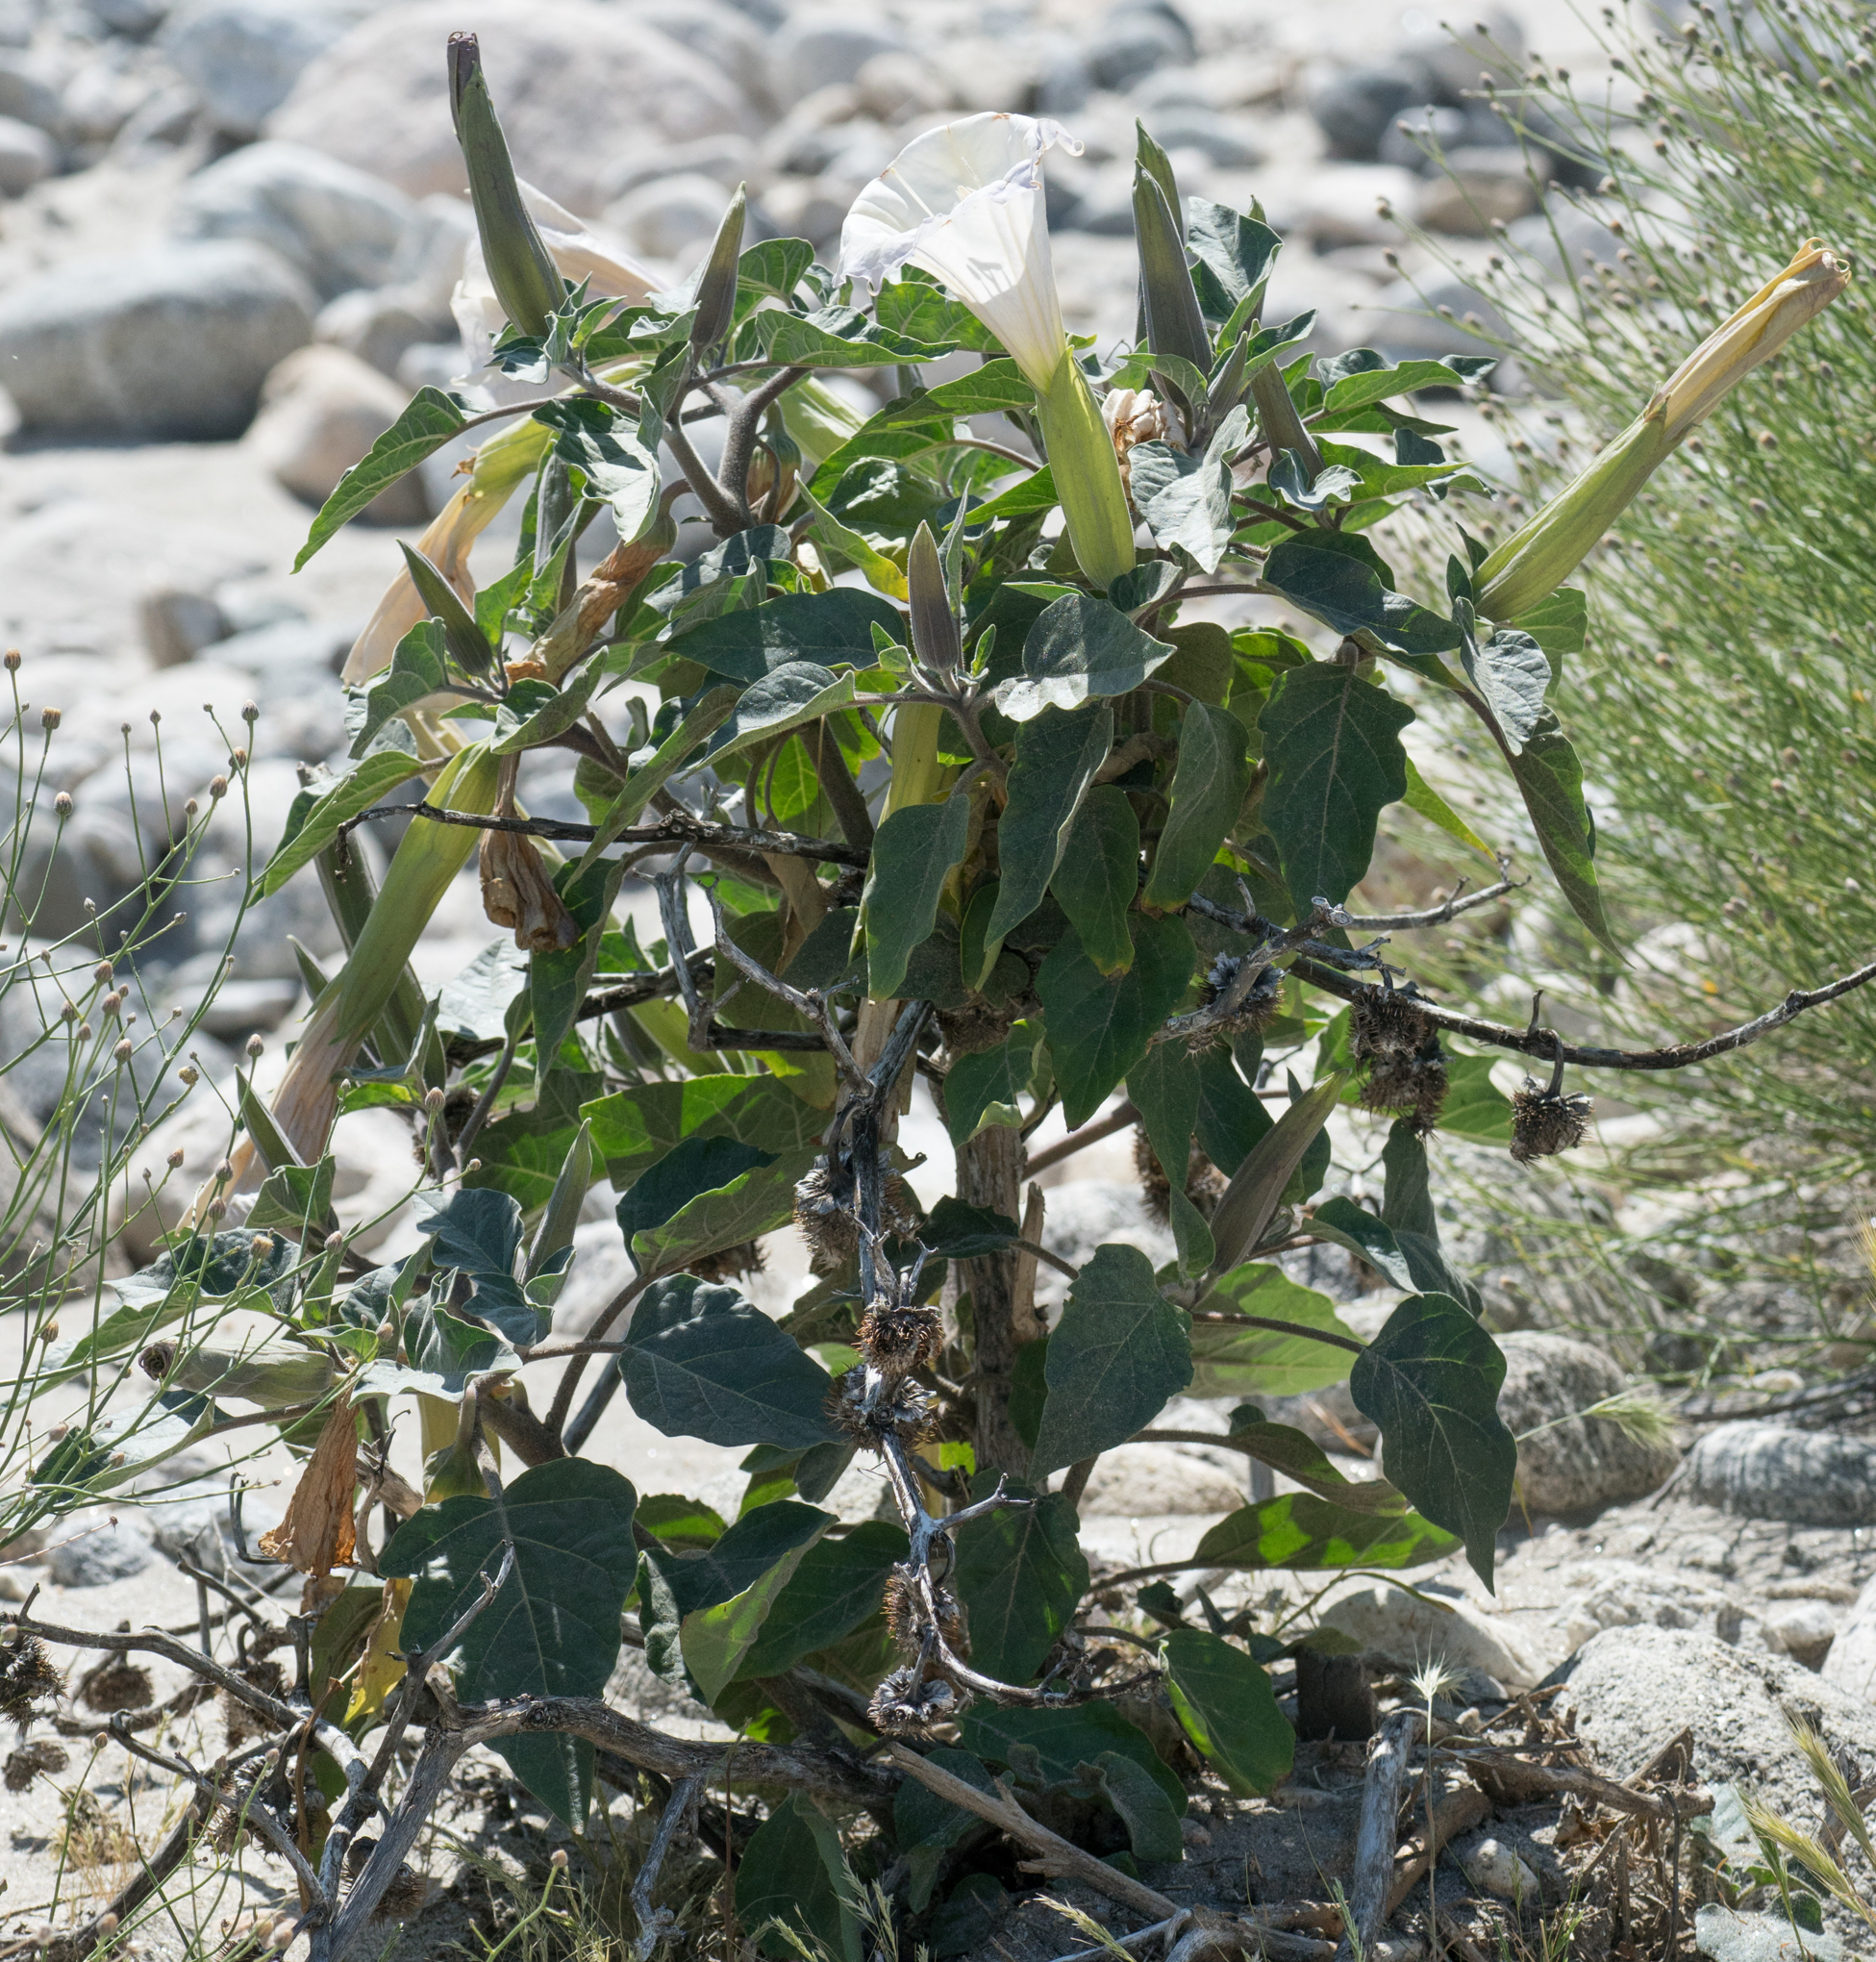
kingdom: Plantae
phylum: Tracheophyta
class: Magnoliopsida
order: Solanales
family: Solanaceae
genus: Datura
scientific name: Datura wrightii
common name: Sacred thorn-apple
